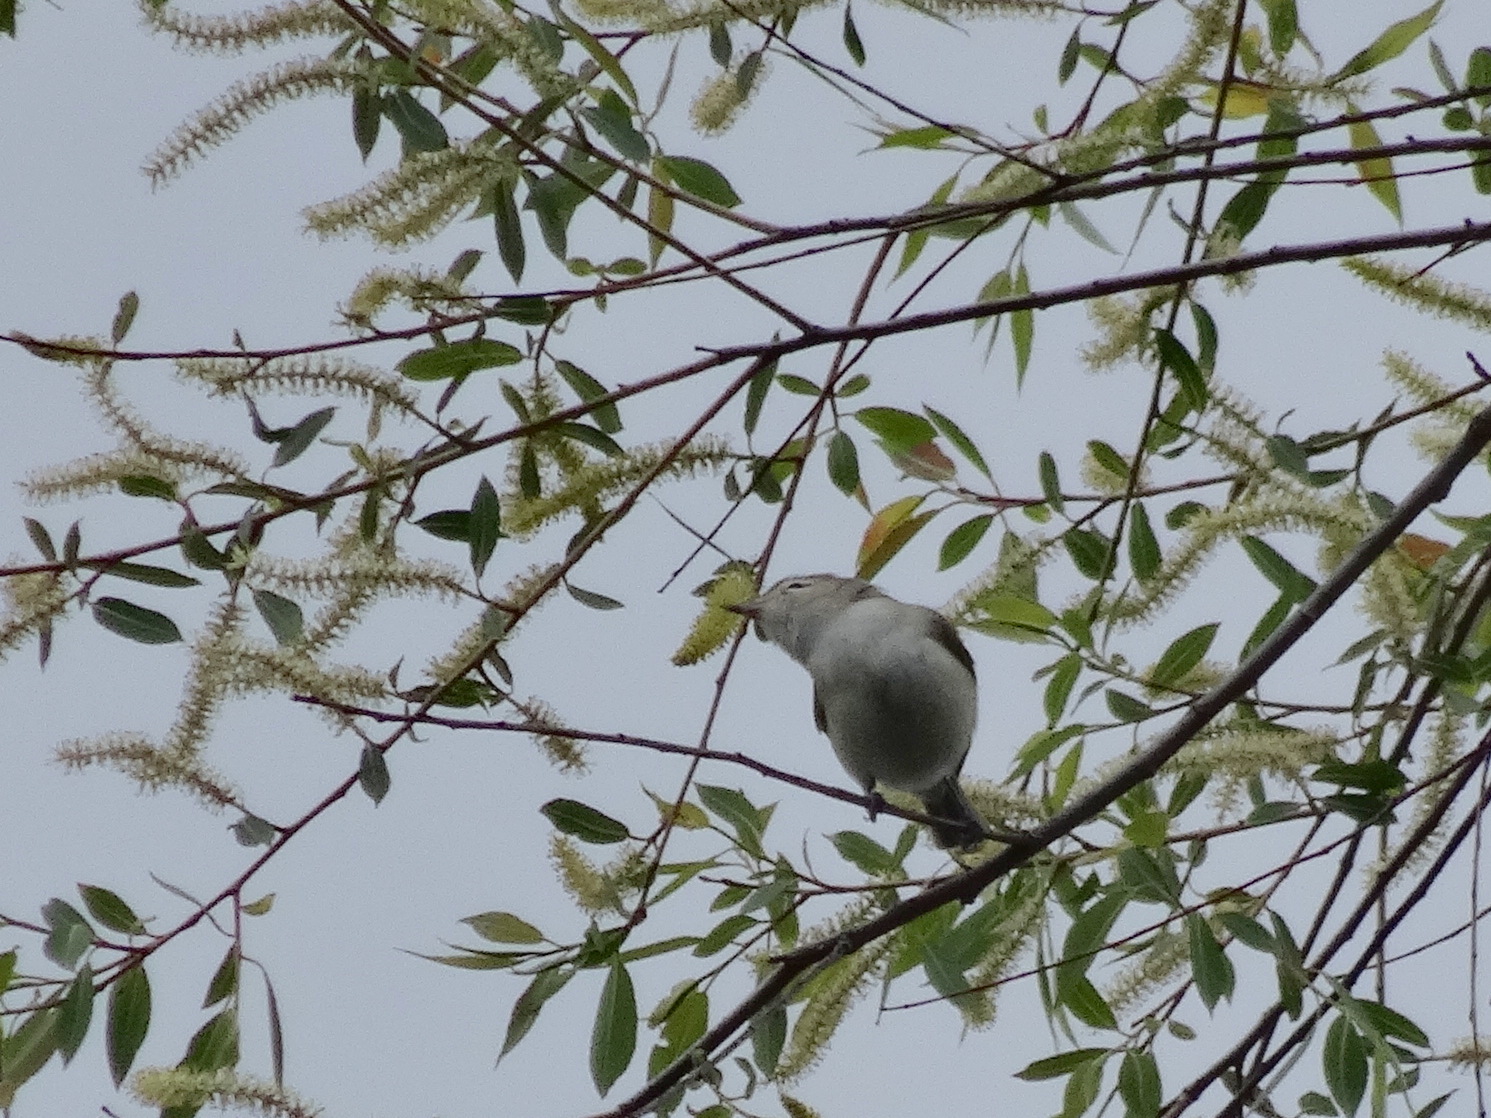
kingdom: Animalia
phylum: Chordata
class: Aves
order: Passeriformes
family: Vireonidae
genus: Vireo
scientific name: Vireo gilvus
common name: Warbling vireo
